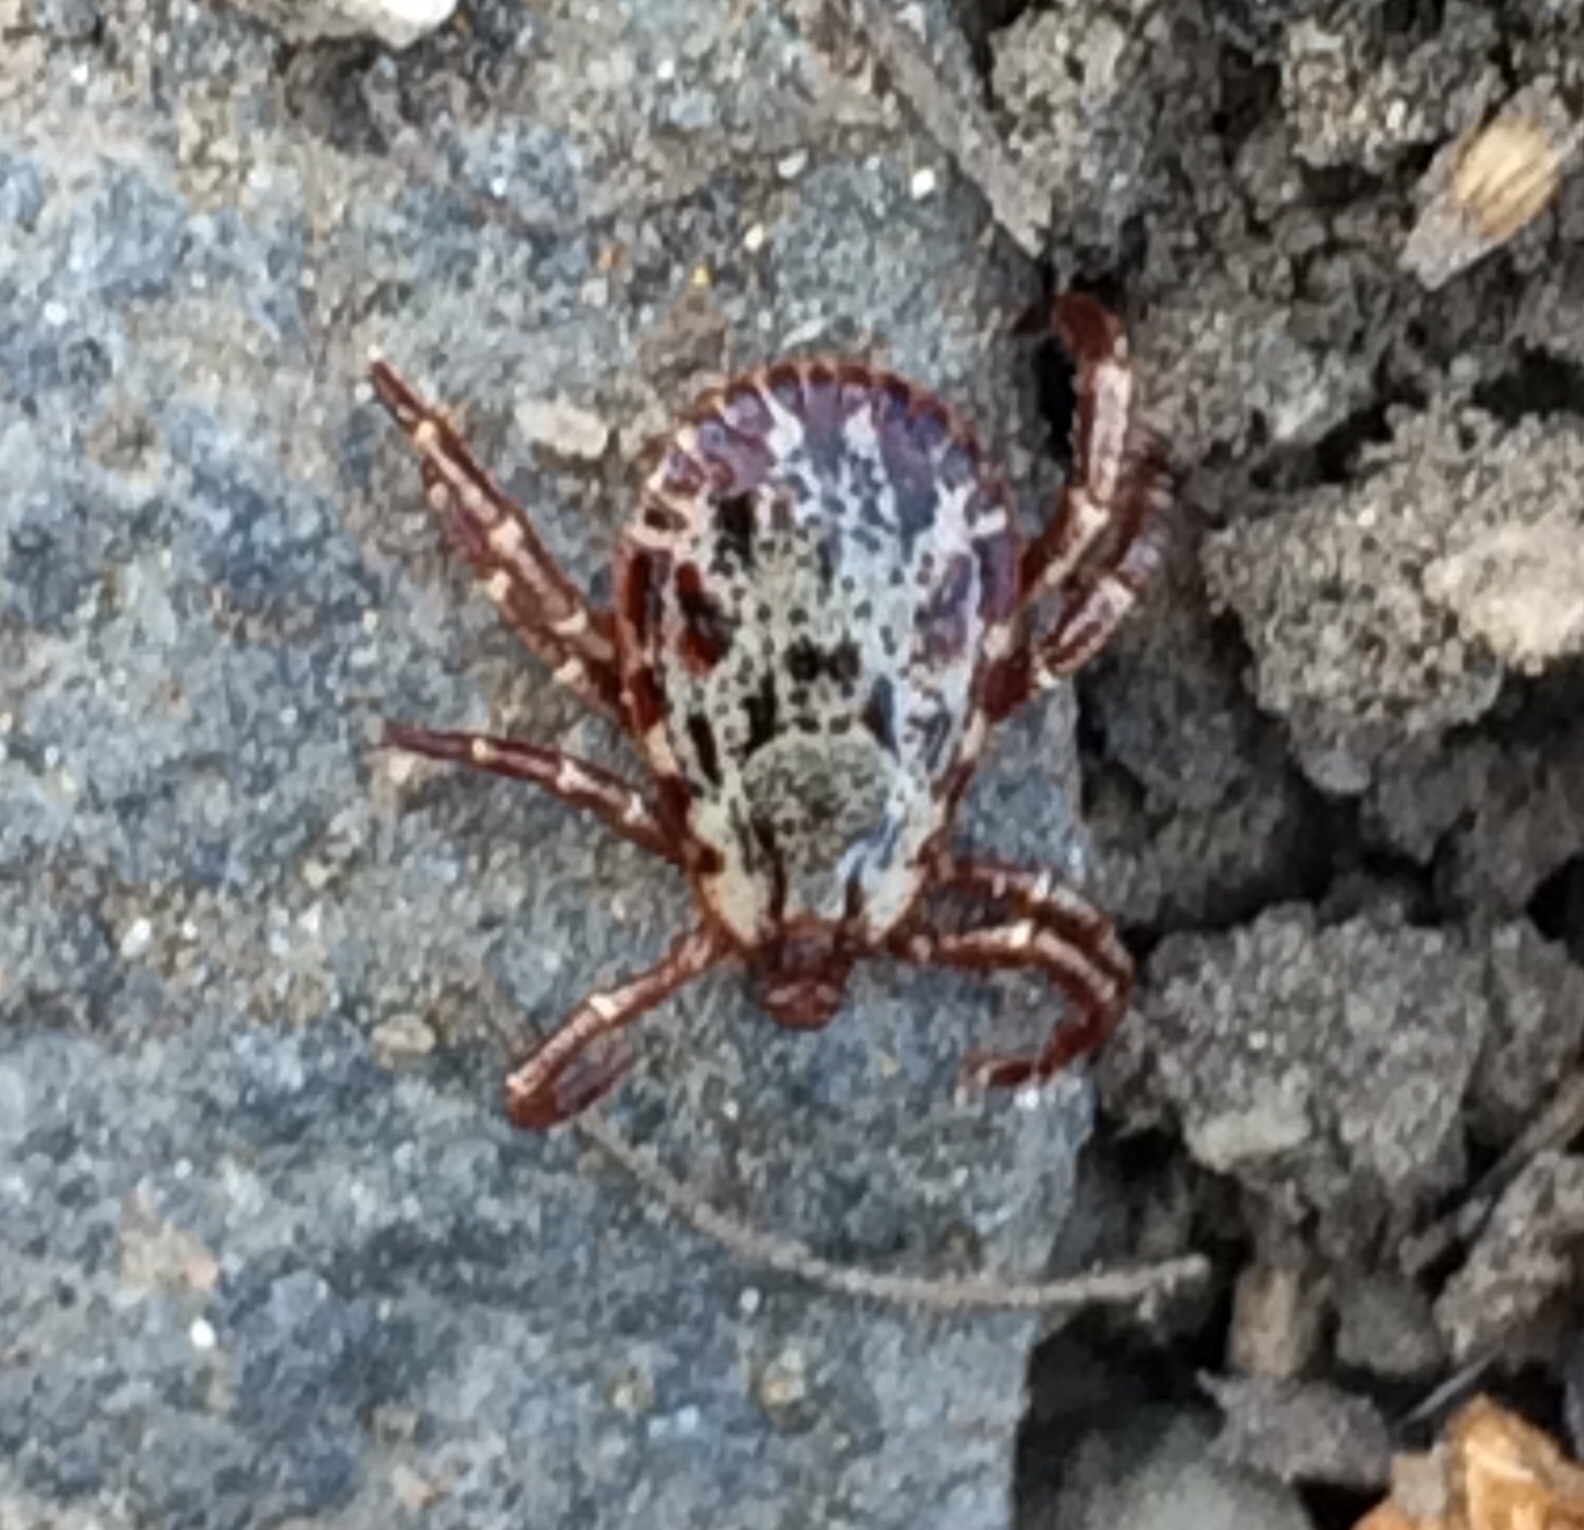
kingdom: Animalia
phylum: Arthropoda
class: Arachnida
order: Ixodida
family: Ixodidae
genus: Dermacentor
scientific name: Dermacentor andersoni
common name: Rocky mountain wood tick
